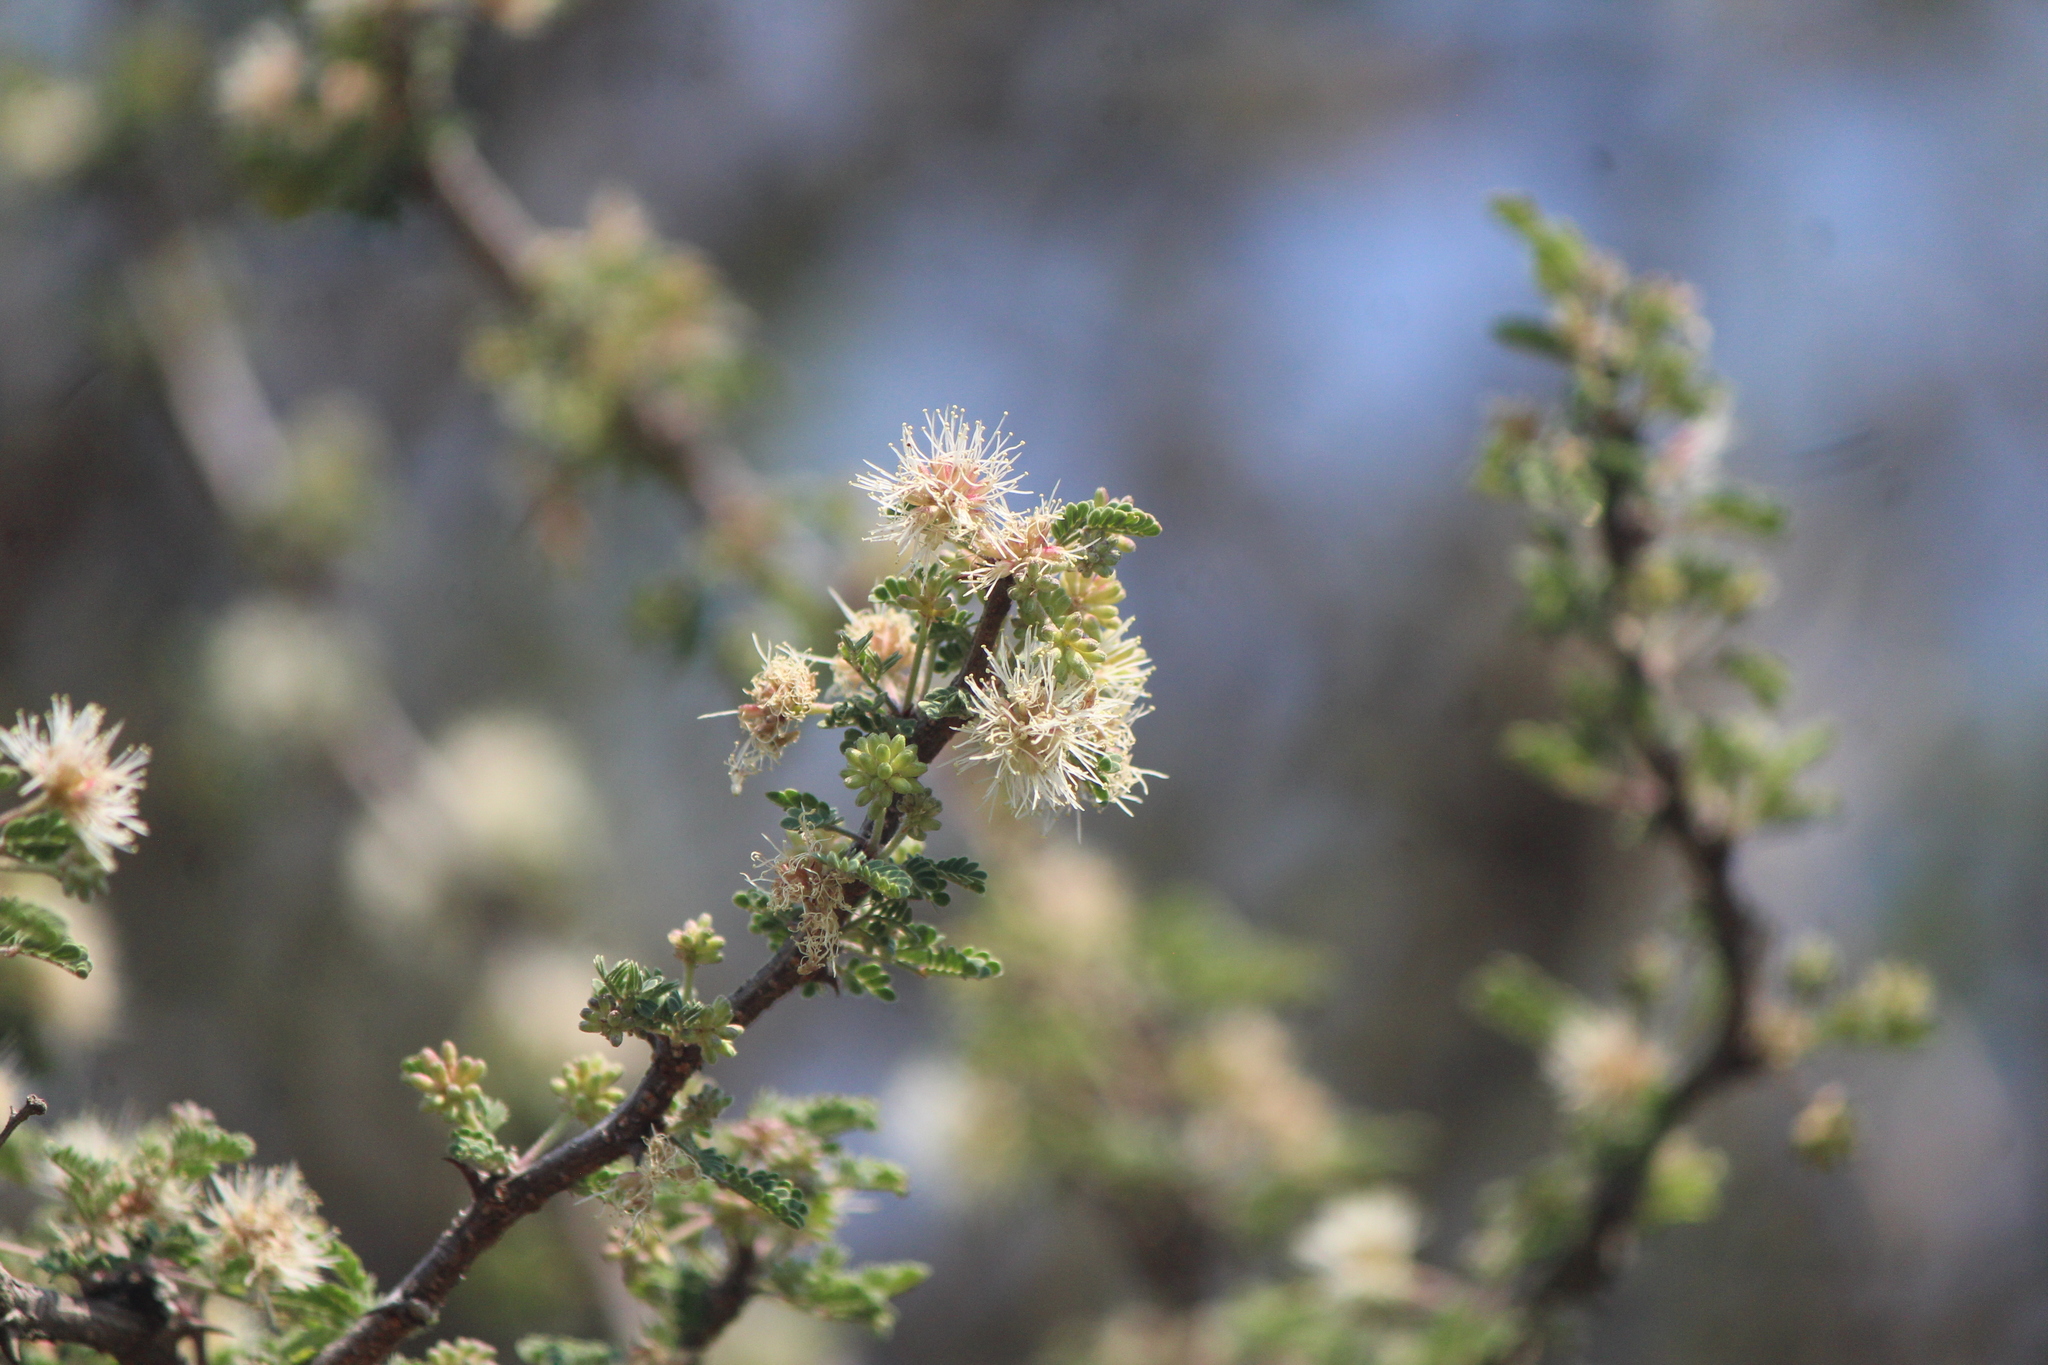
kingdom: Plantae
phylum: Tracheophyta
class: Magnoliopsida
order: Fabales
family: Fabaceae
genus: Mimosa
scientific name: Mimosa aculeaticarpa
